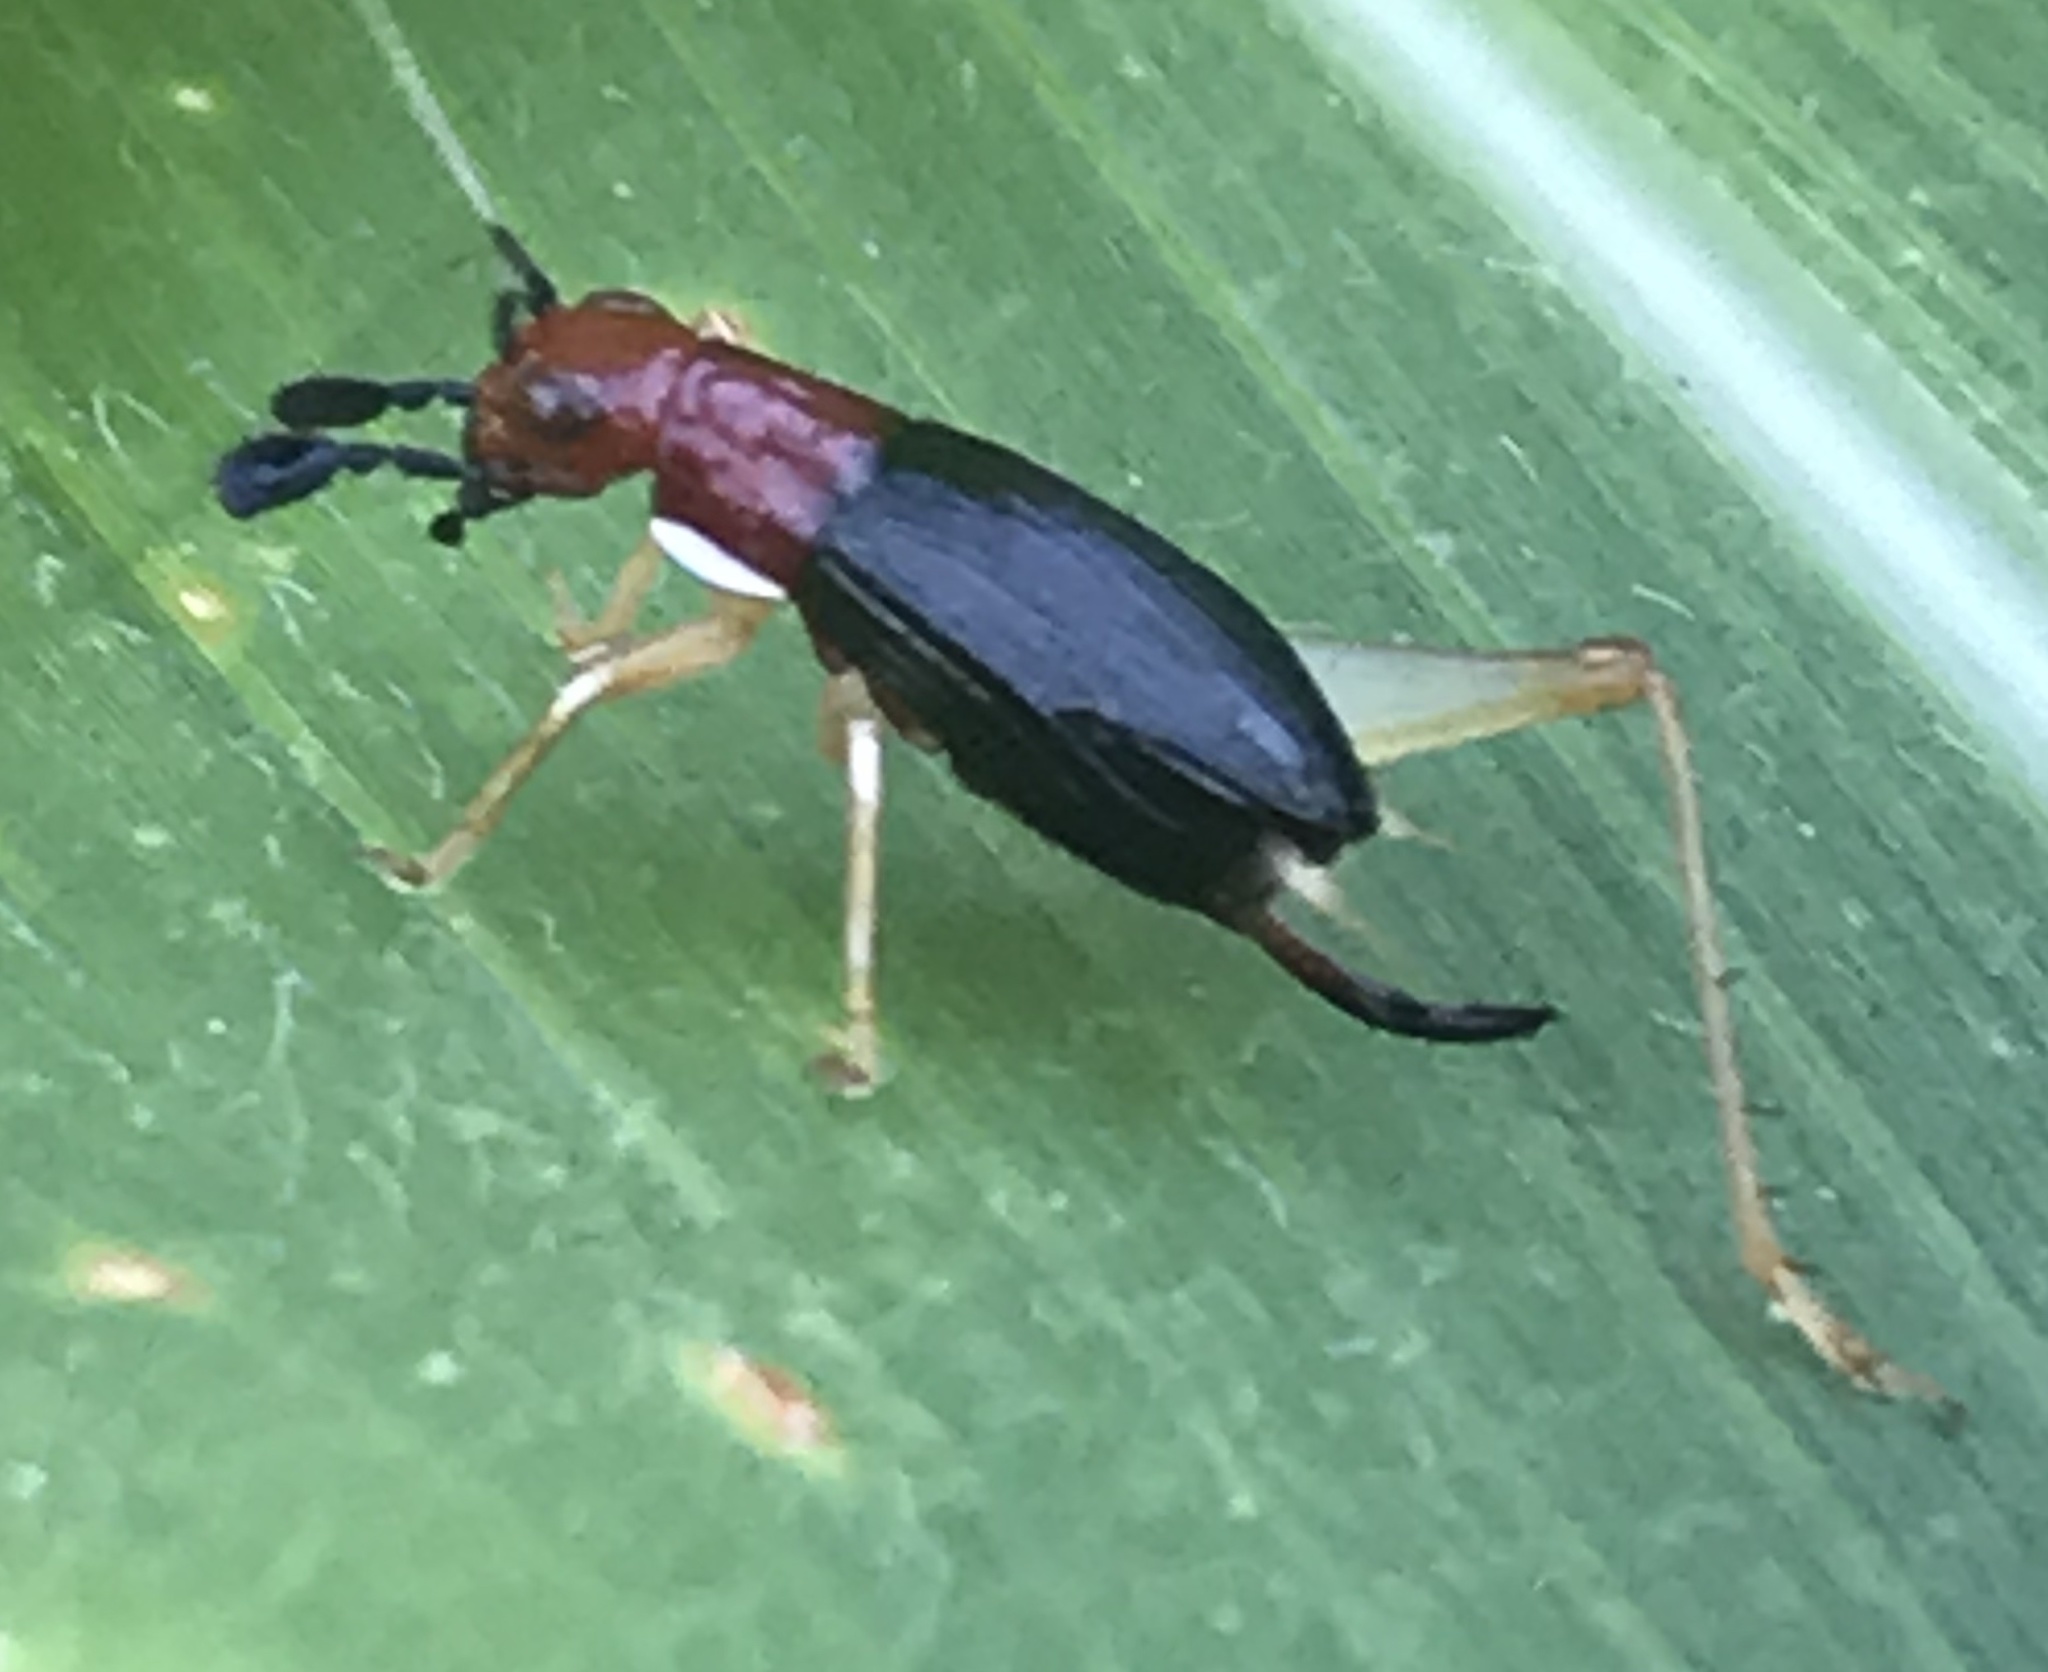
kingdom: Animalia
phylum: Arthropoda
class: Insecta
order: Orthoptera
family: Trigonidiidae
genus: Phyllopalpus
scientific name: Phyllopalpus pulchellus
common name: Handsome trig
